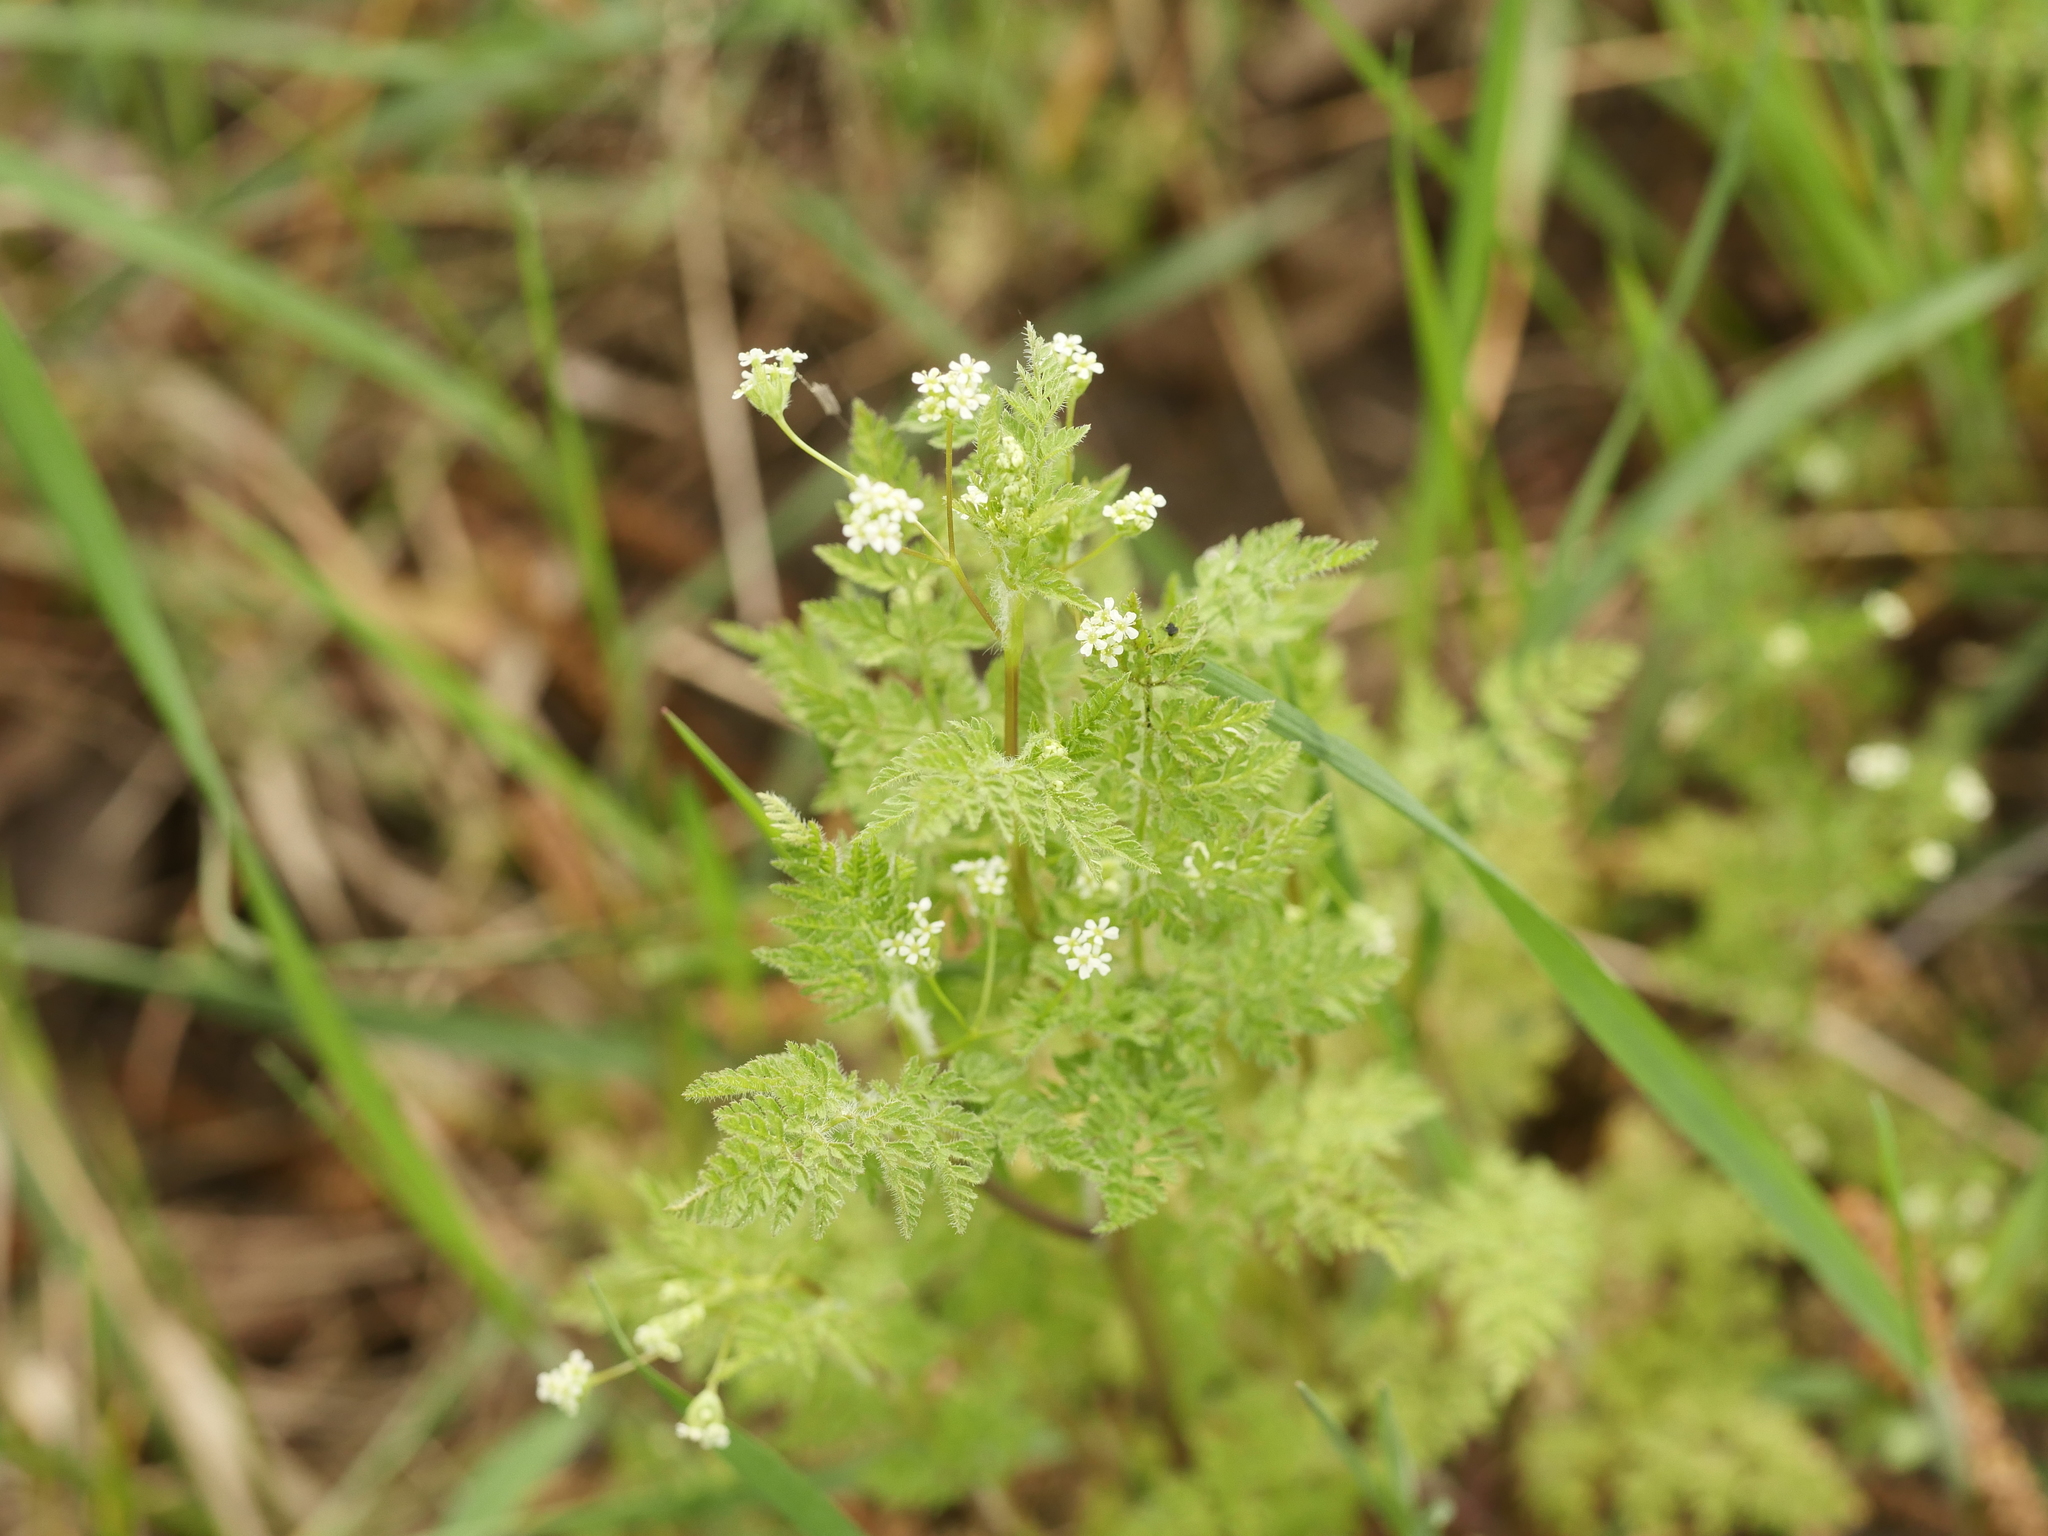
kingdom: Plantae
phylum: Tracheophyta
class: Magnoliopsida
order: Apiales
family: Apiaceae
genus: Anthriscus
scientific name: Anthriscus caucalis
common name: Bur chervil
